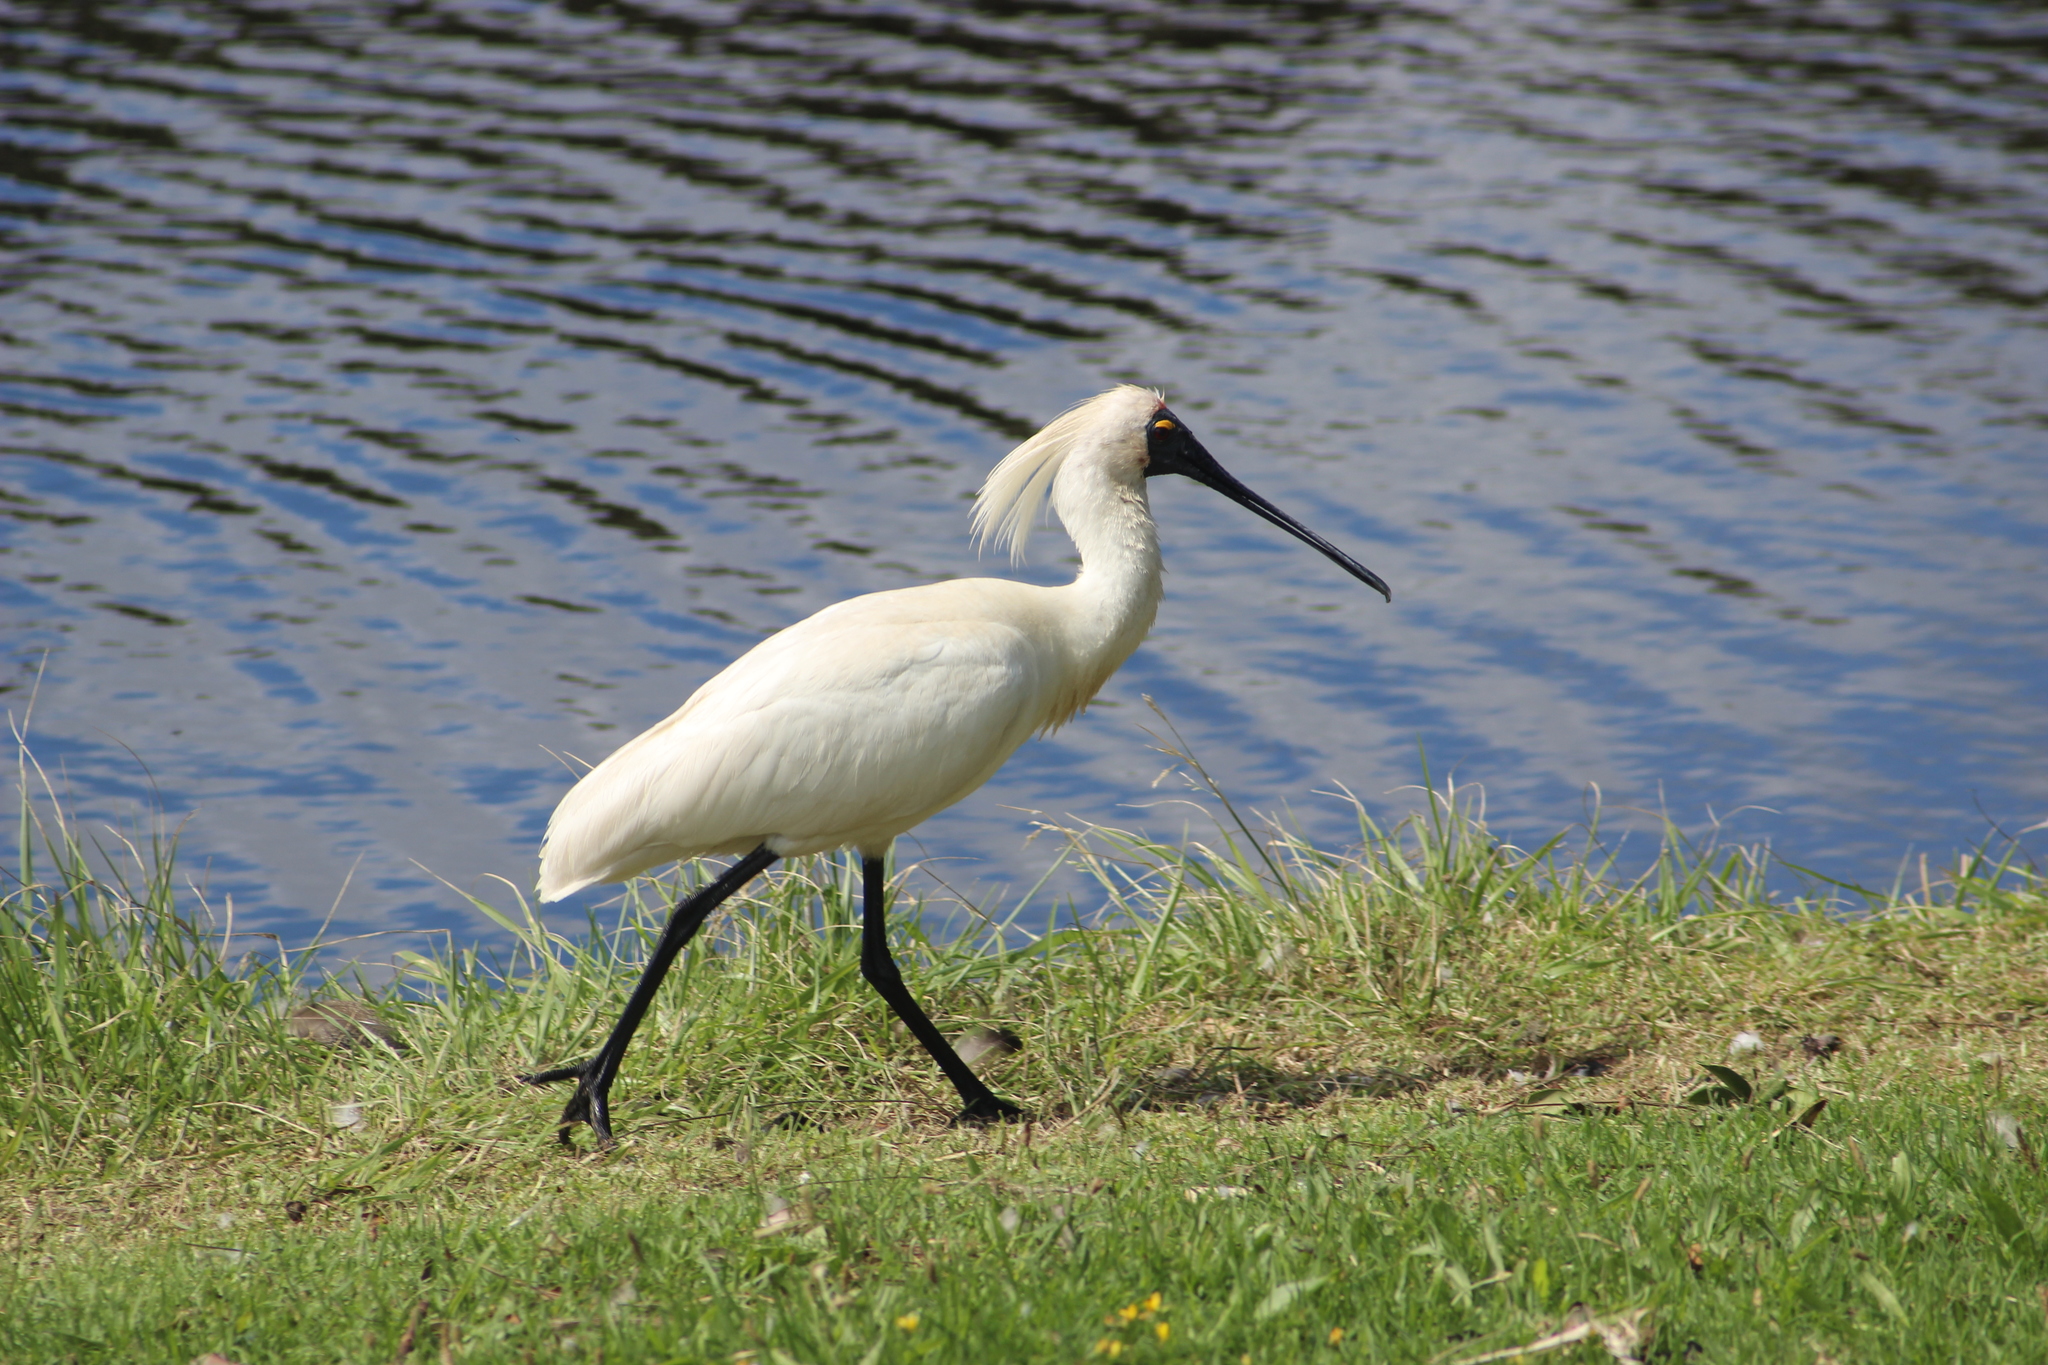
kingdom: Animalia
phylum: Chordata
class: Aves
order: Pelecaniformes
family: Threskiornithidae
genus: Platalea
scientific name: Platalea regia
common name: Royal spoonbill
